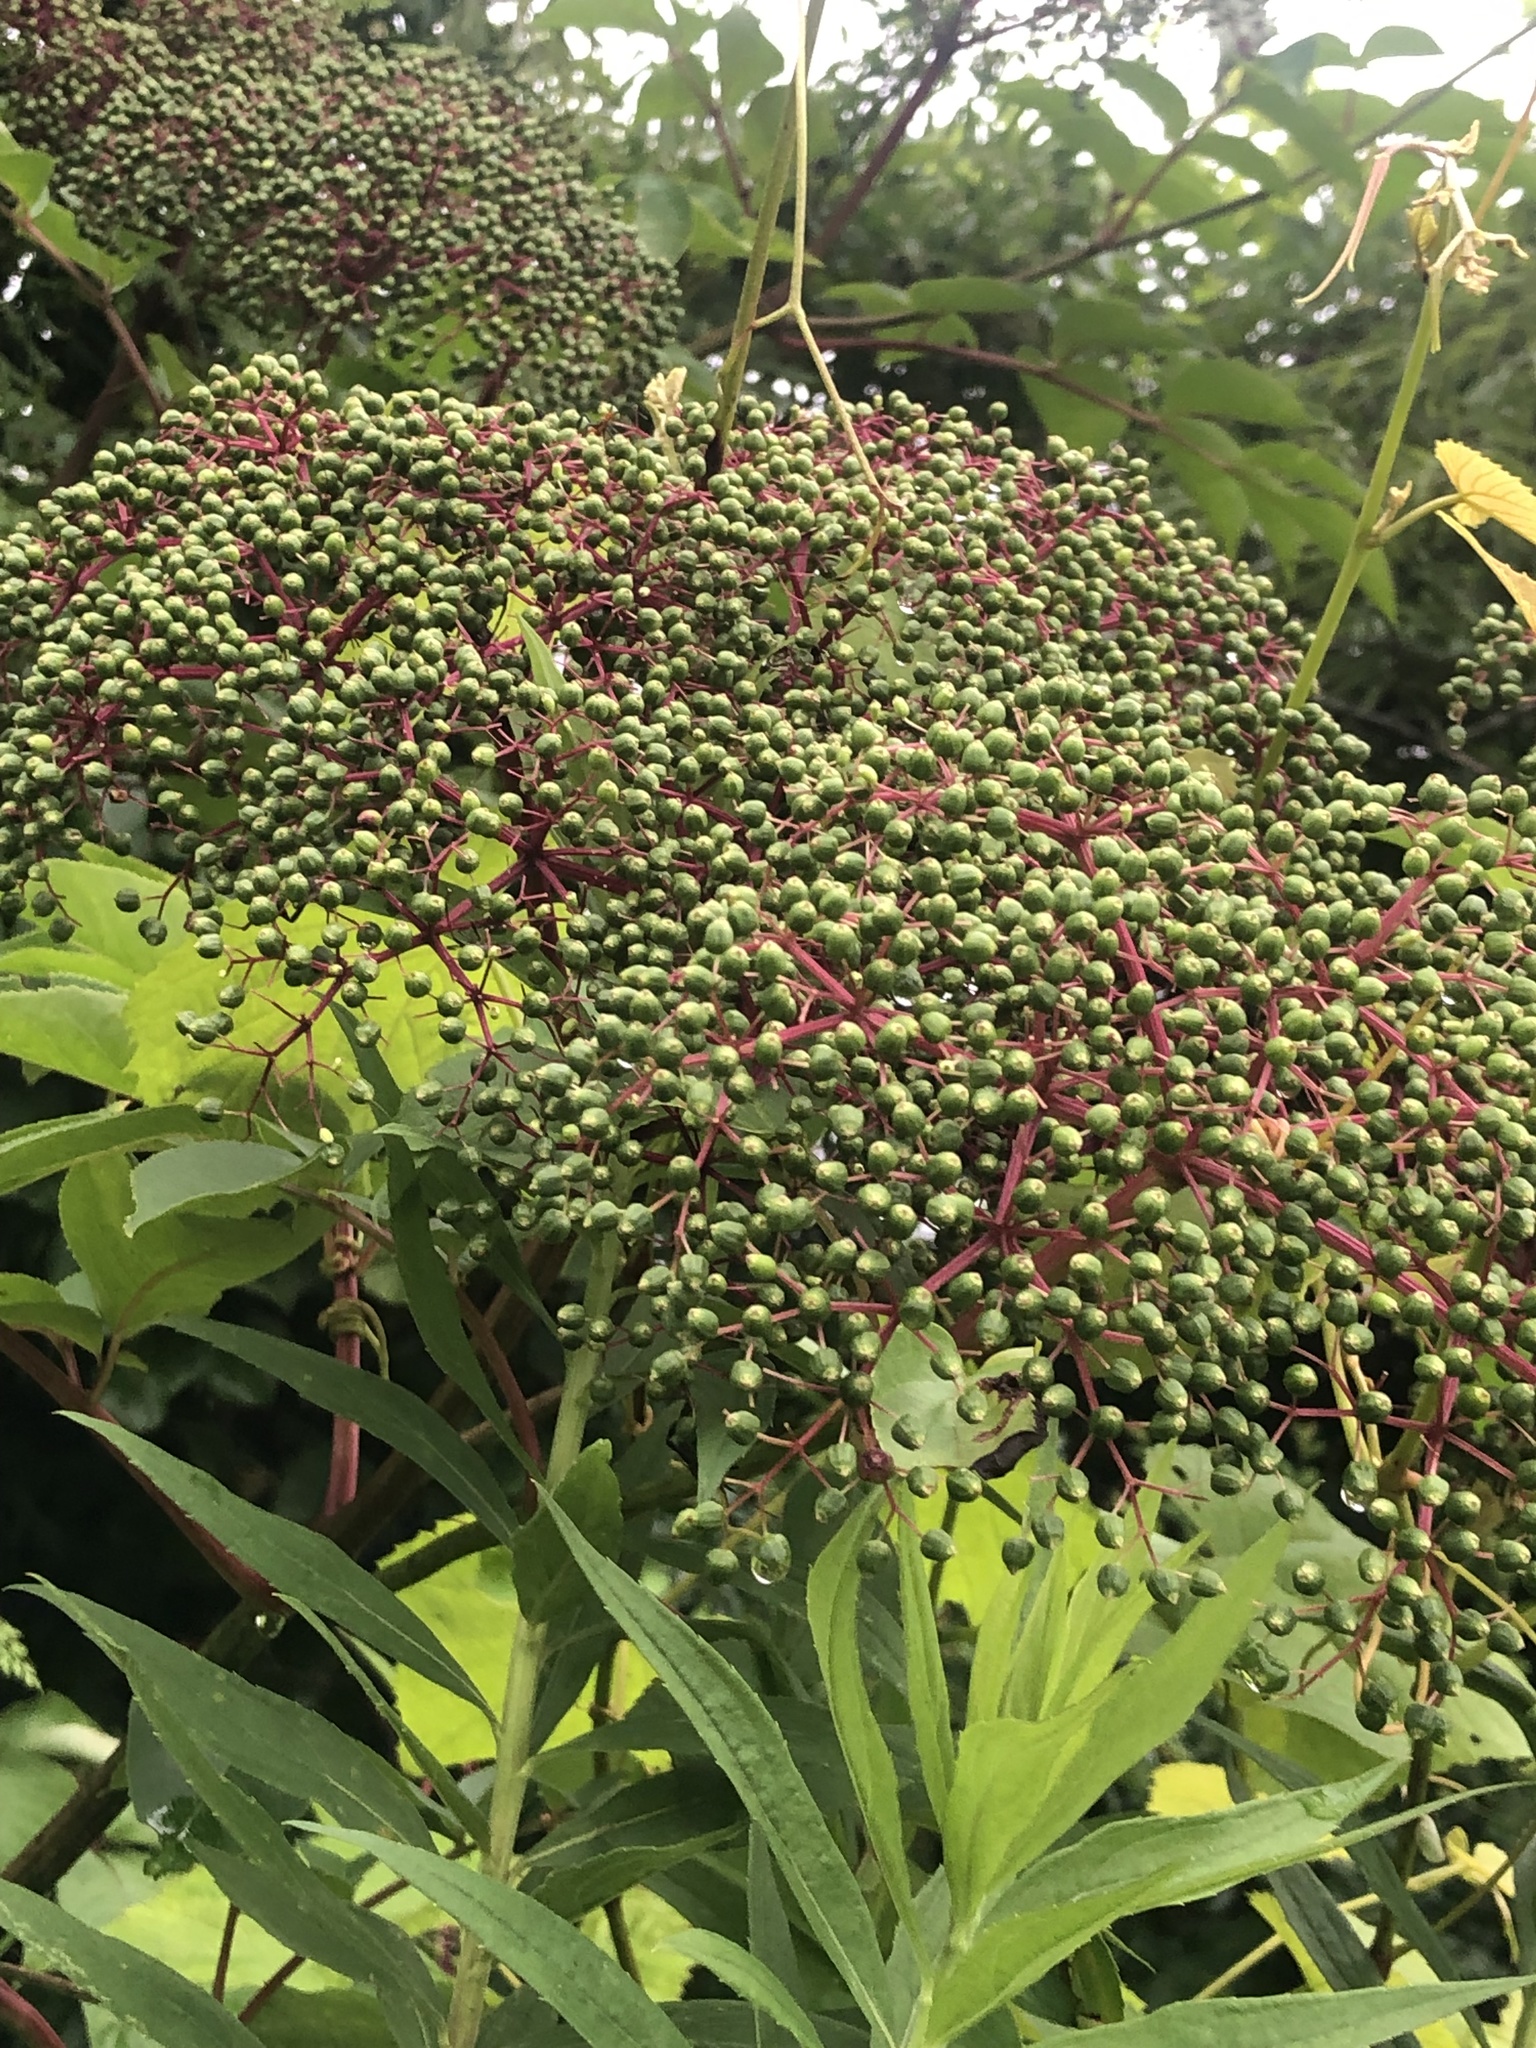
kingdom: Plantae
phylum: Tracheophyta
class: Magnoliopsida
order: Dipsacales
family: Viburnaceae
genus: Sambucus
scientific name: Sambucus canadensis
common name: American elder
